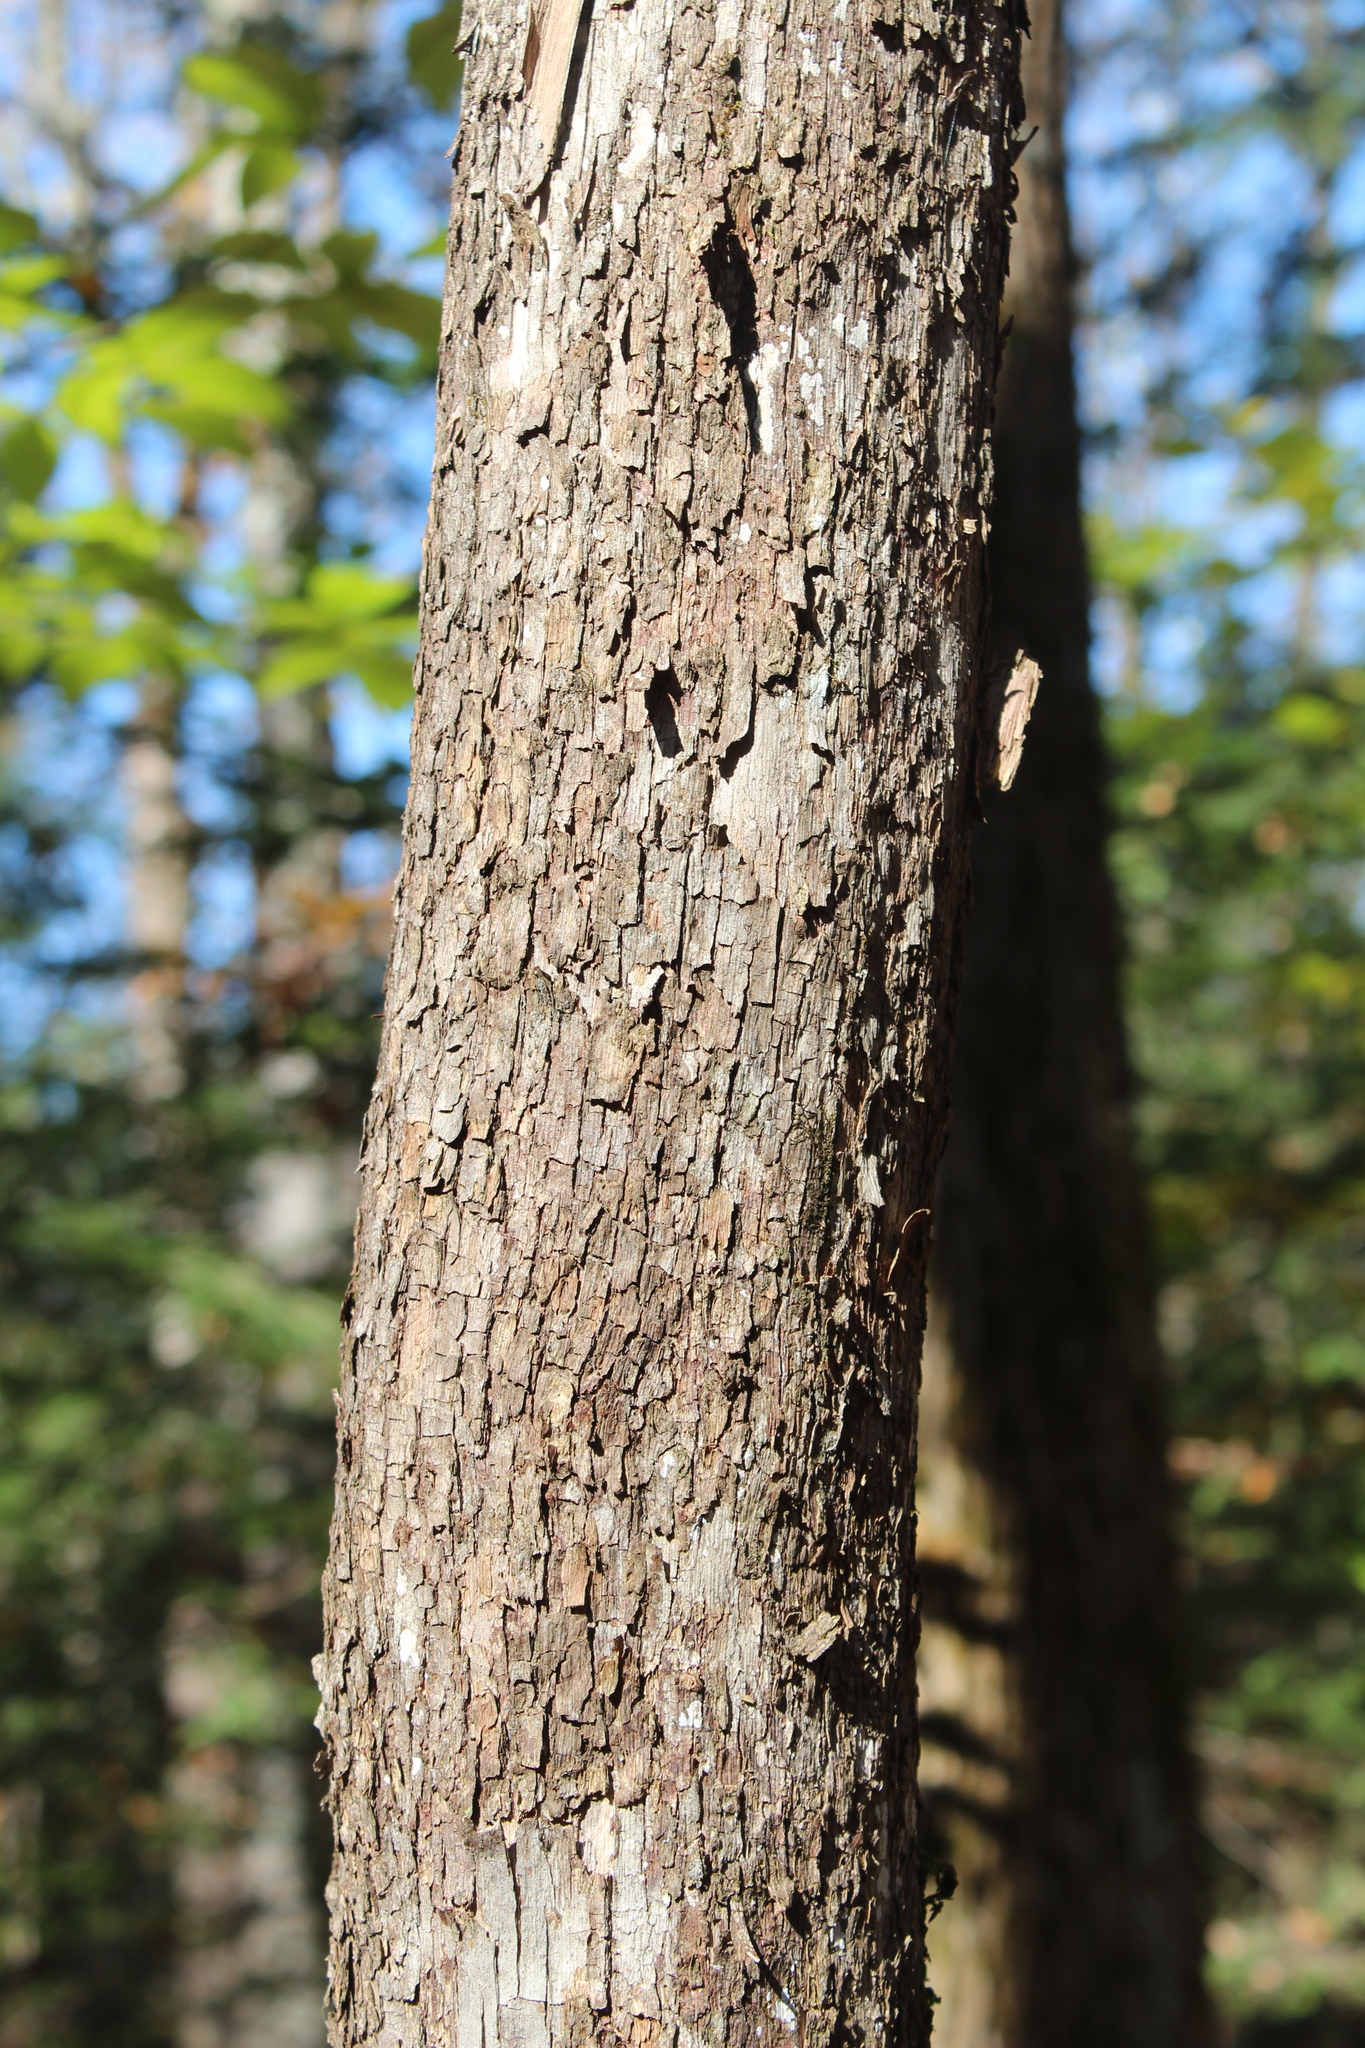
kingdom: Plantae
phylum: Tracheophyta
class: Magnoliopsida
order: Fagales
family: Betulaceae
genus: Ostrya
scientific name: Ostrya virginiana
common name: Ironwood
